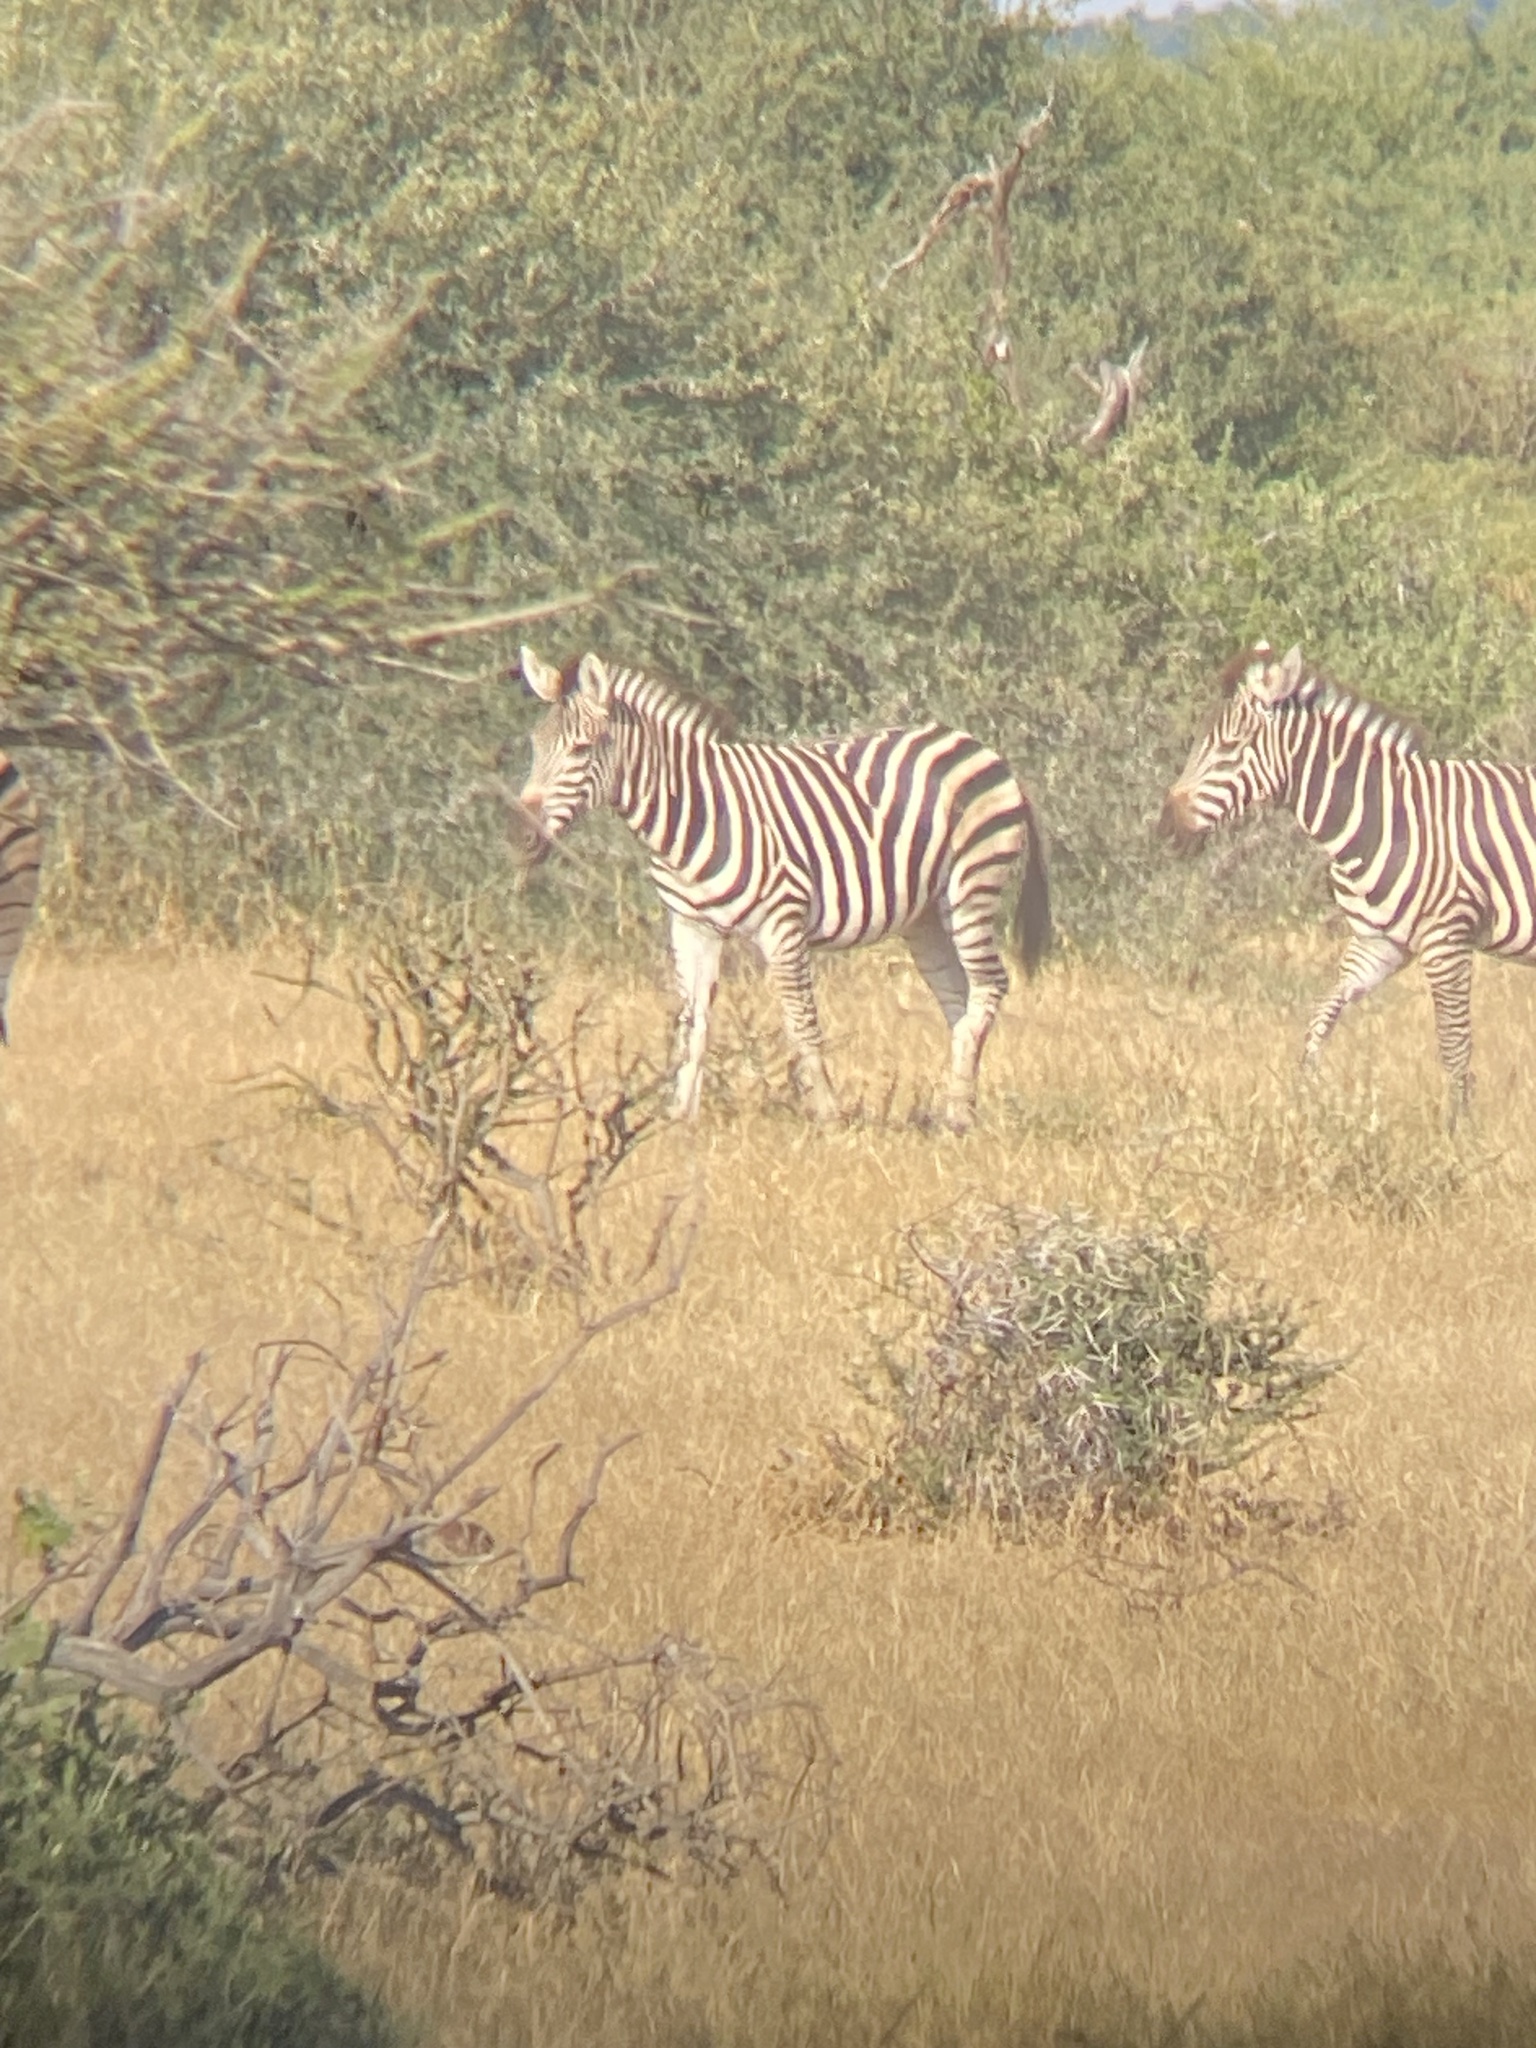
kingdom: Animalia
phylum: Chordata
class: Mammalia
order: Perissodactyla
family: Equidae
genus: Equus
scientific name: Equus quagga
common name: Plains zebra
